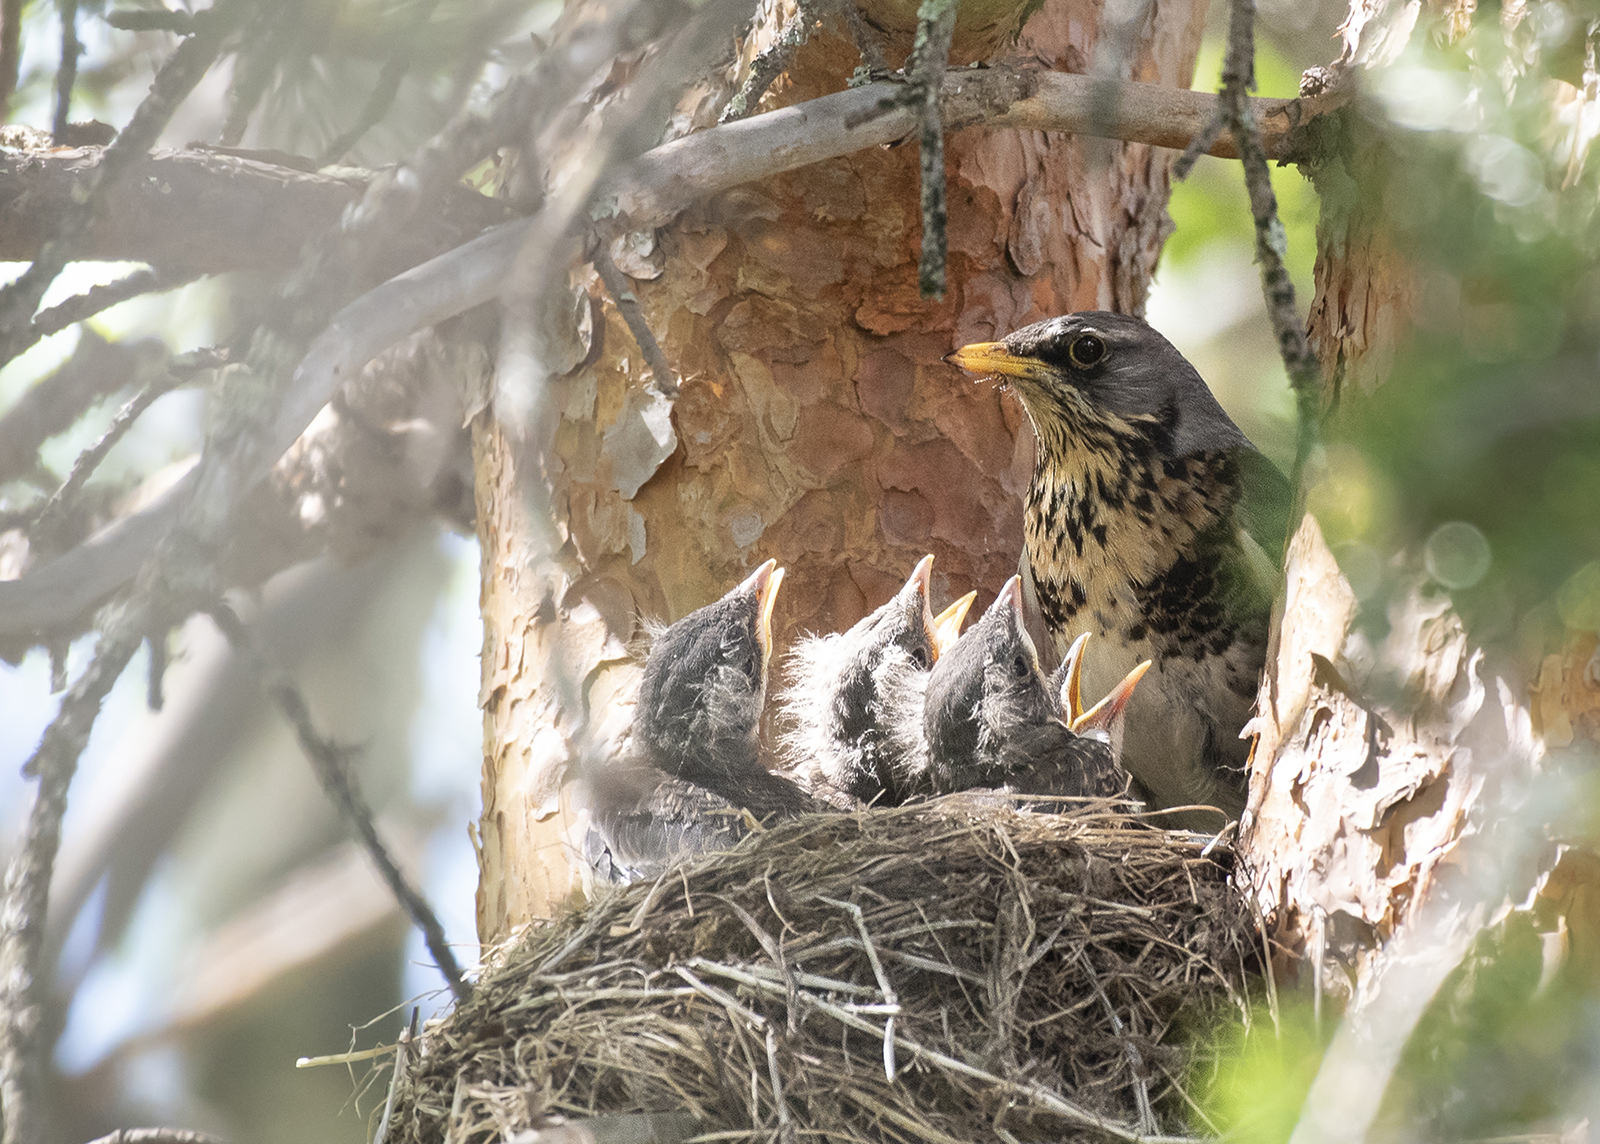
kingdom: Animalia
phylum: Chordata
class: Aves
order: Passeriformes
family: Turdidae
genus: Turdus
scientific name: Turdus pilaris
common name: Fieldfare
